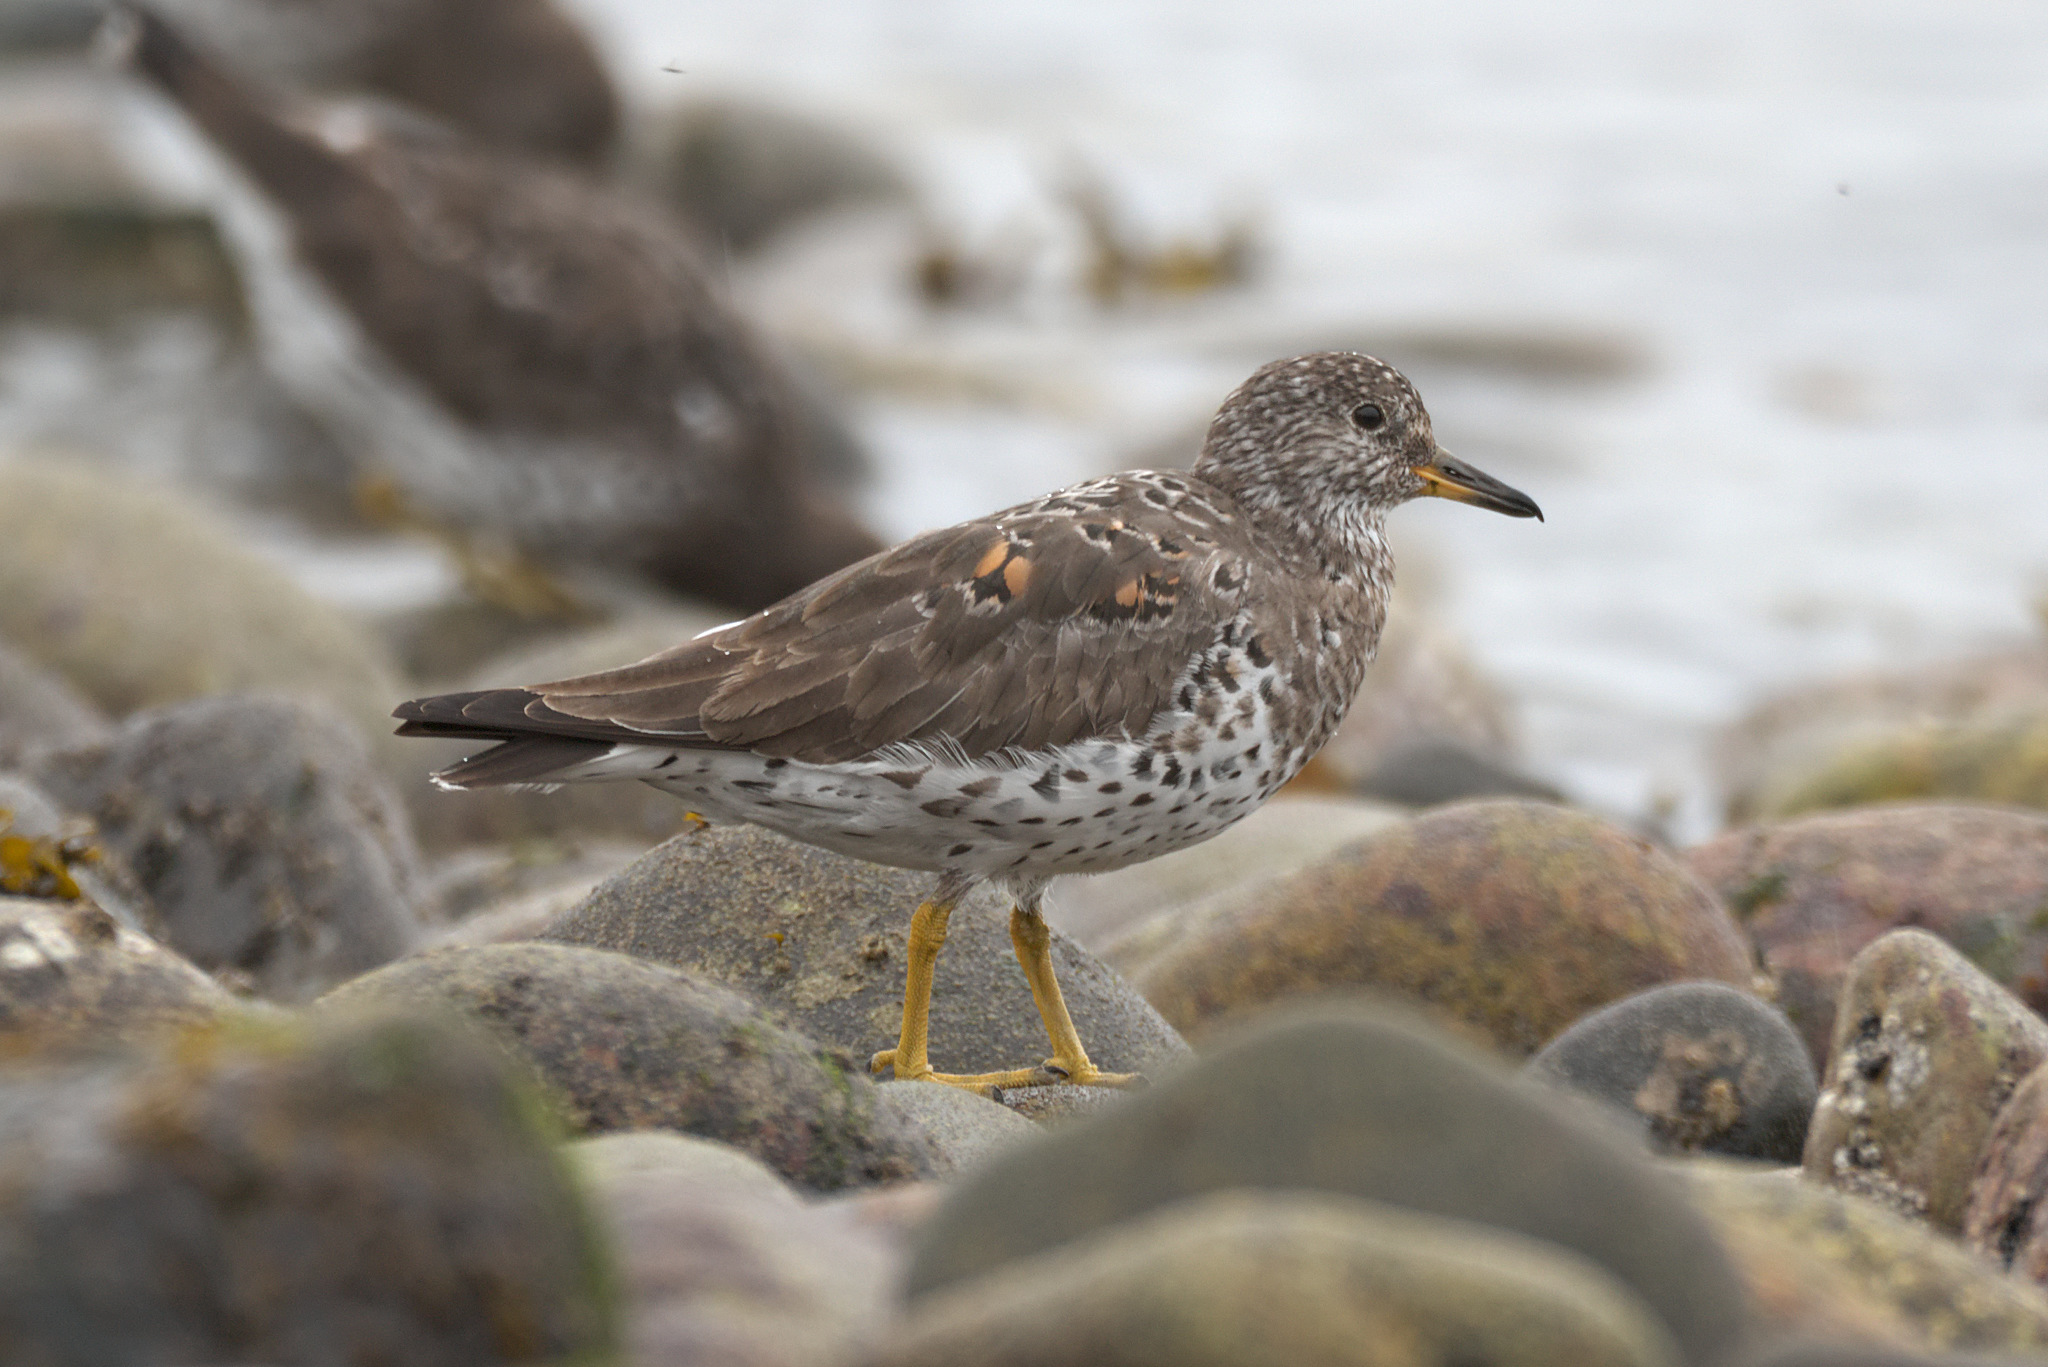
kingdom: Animalia
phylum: Chordata
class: Aves
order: Charadriiformes
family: Scolopacidae
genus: Calidris
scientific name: Calidris virgata
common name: Surfbird
